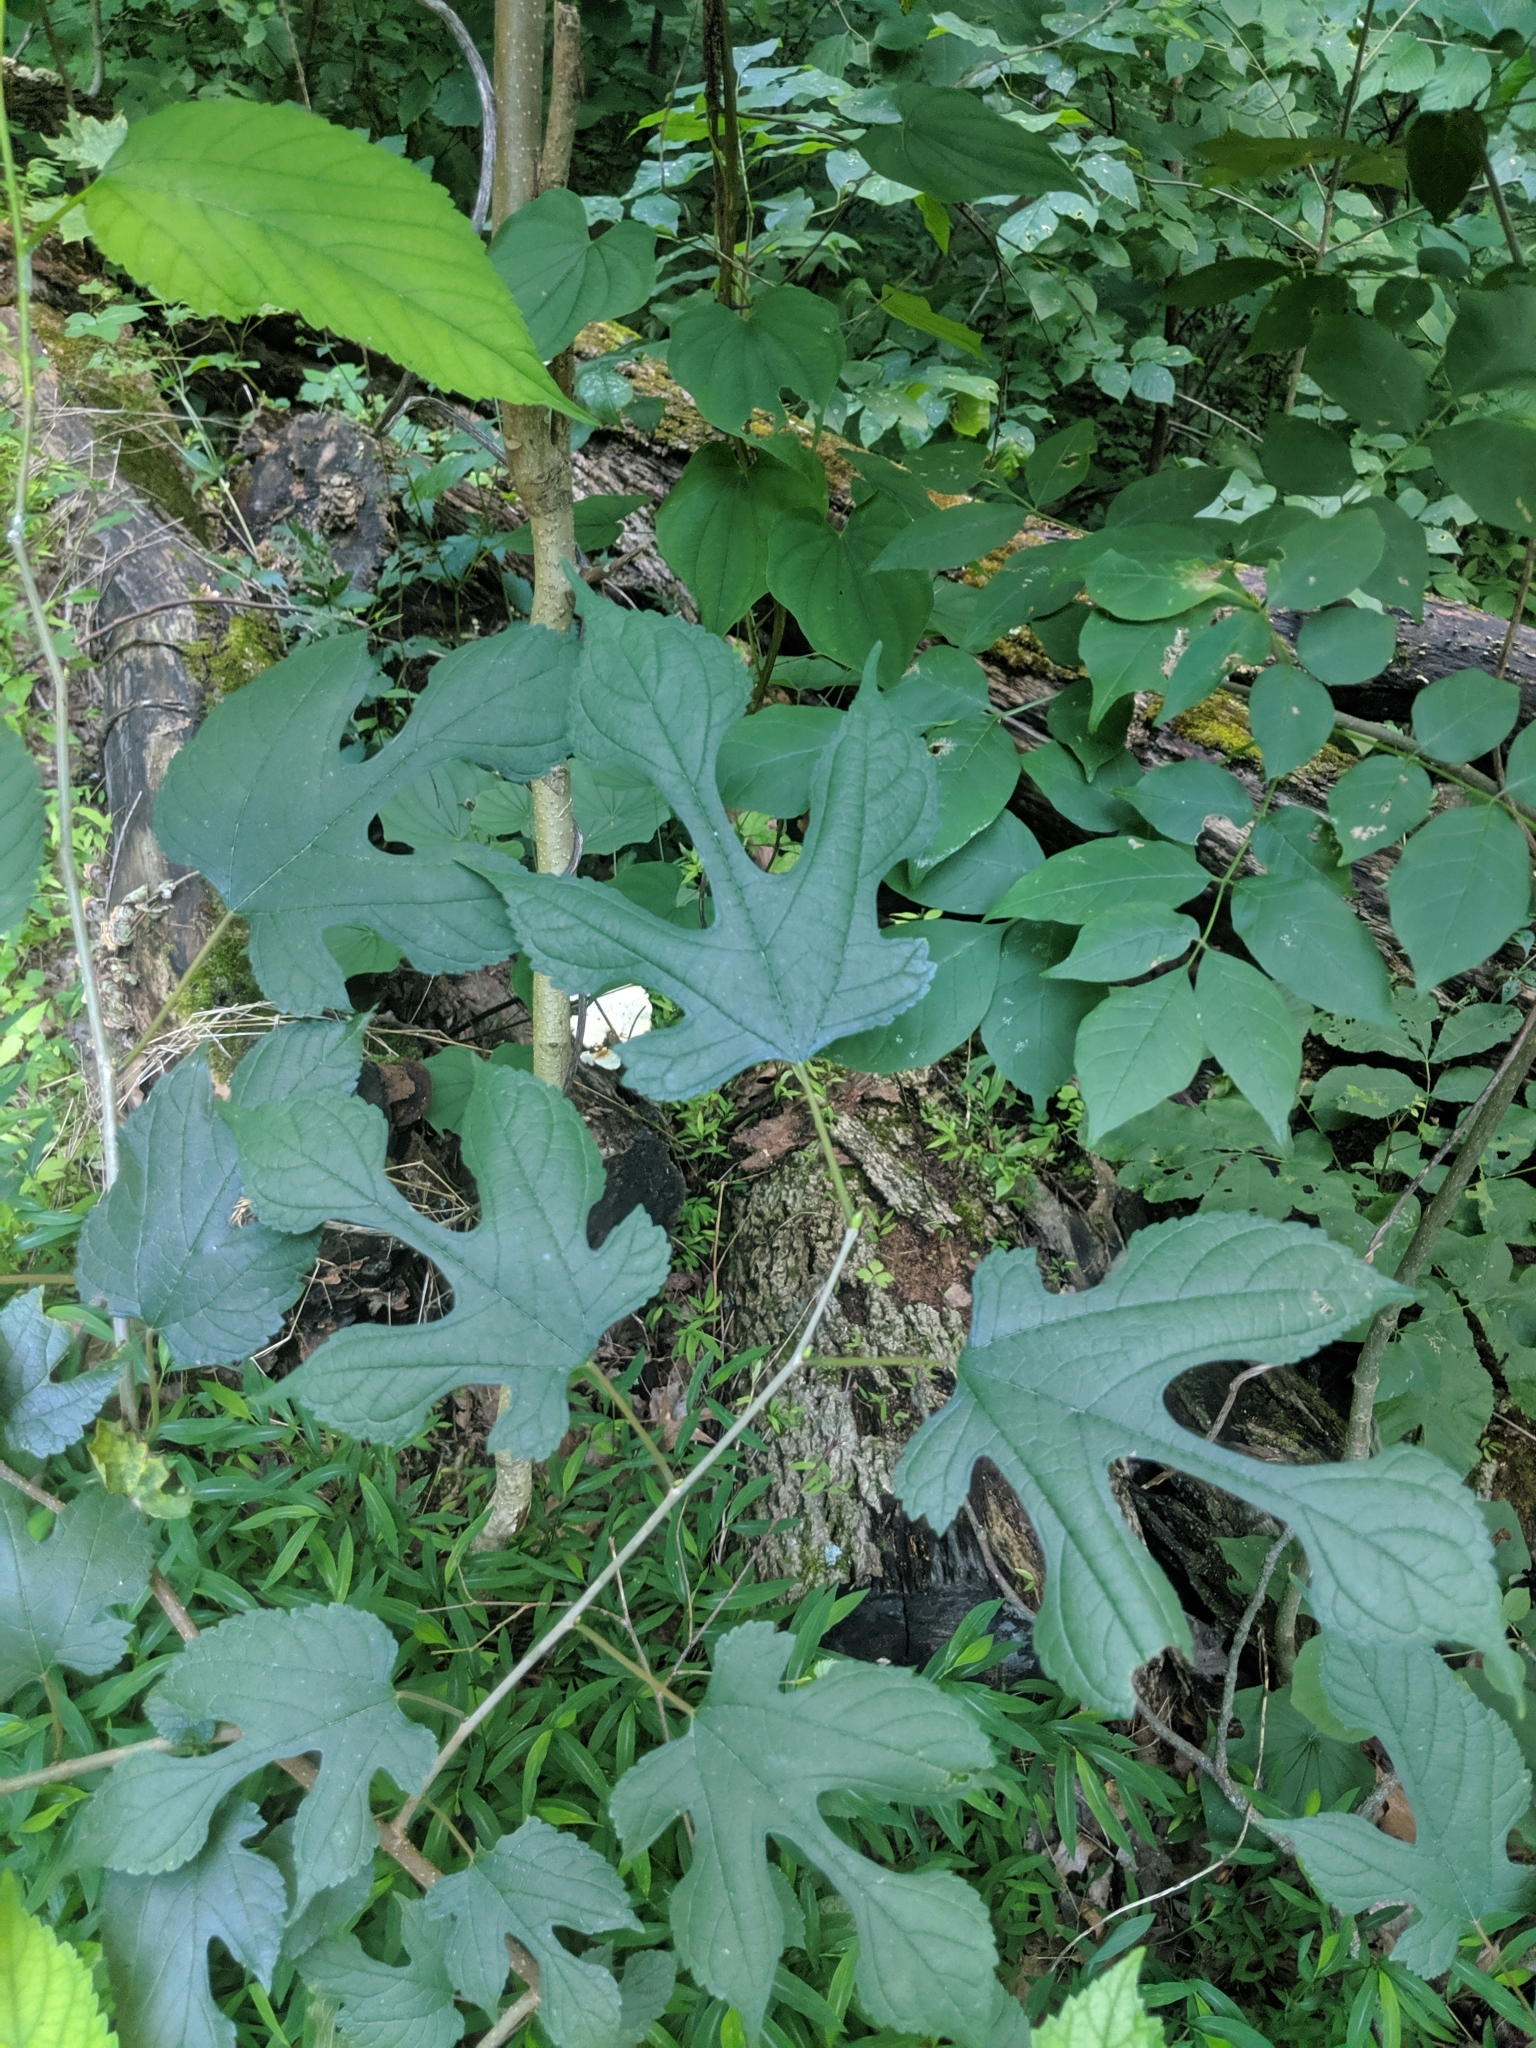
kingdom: Plantae
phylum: Tracheophyta
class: Magnoliopsida
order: Rosales
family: Moraceae
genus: Morus
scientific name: Morus rubra
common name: Red mulberry
